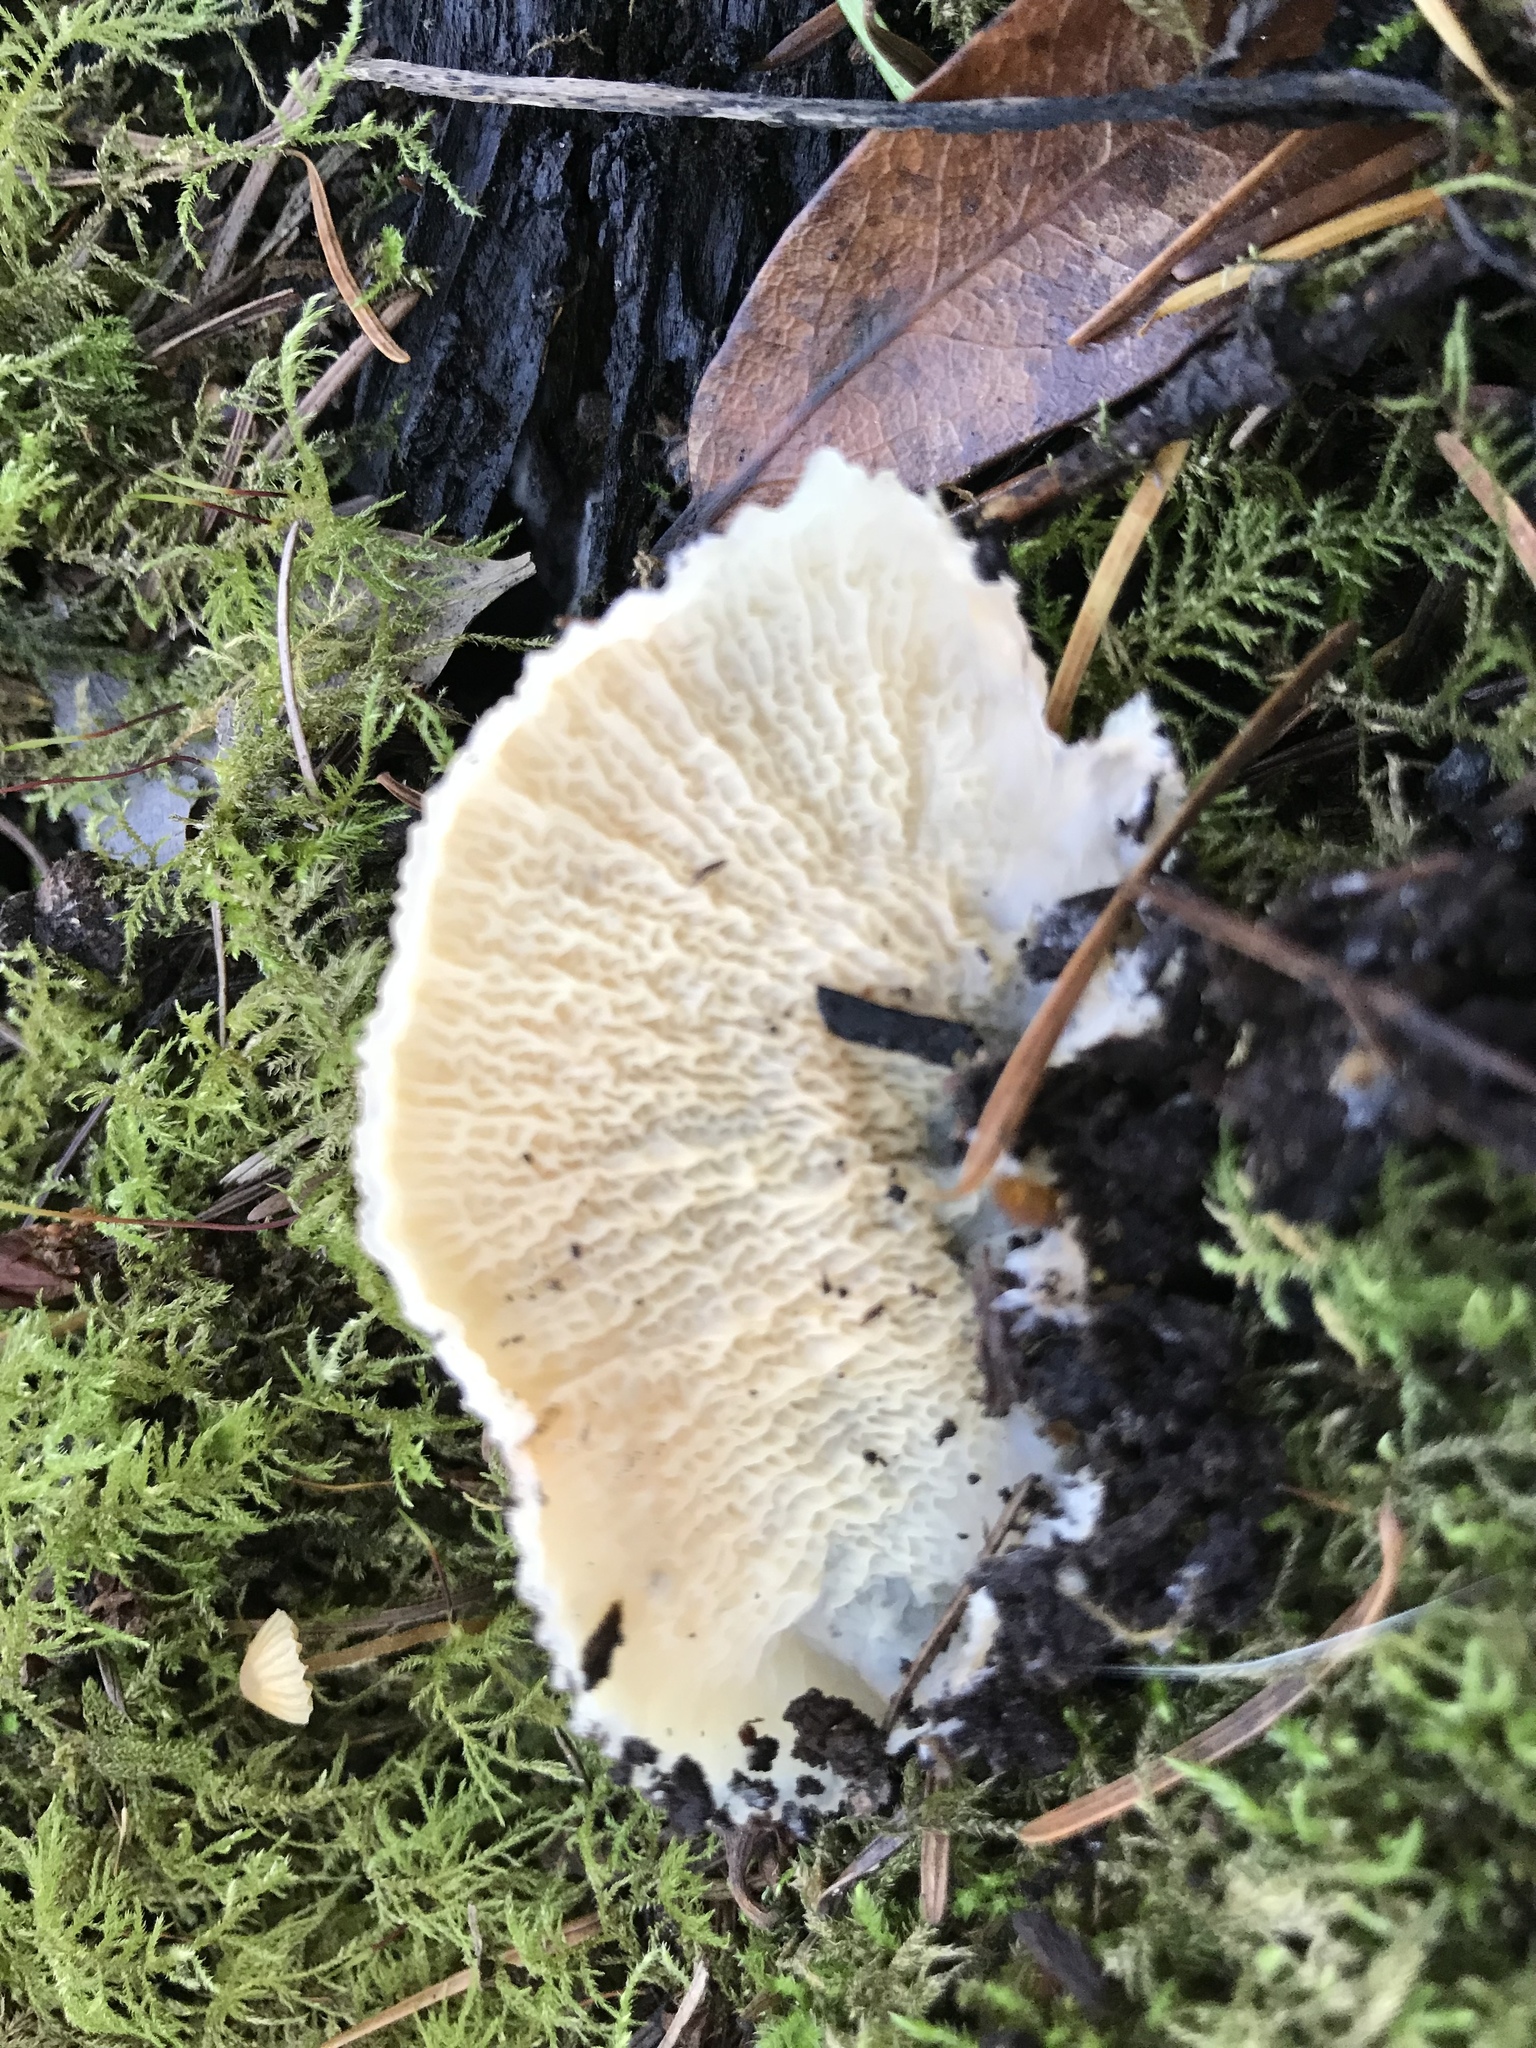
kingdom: Fungi
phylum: Basidiomycota
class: Agaricomycetes
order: Polyporales
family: Meruliaceae
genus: Phlebia
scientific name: Phlebia tremellosa
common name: Jelly rot
